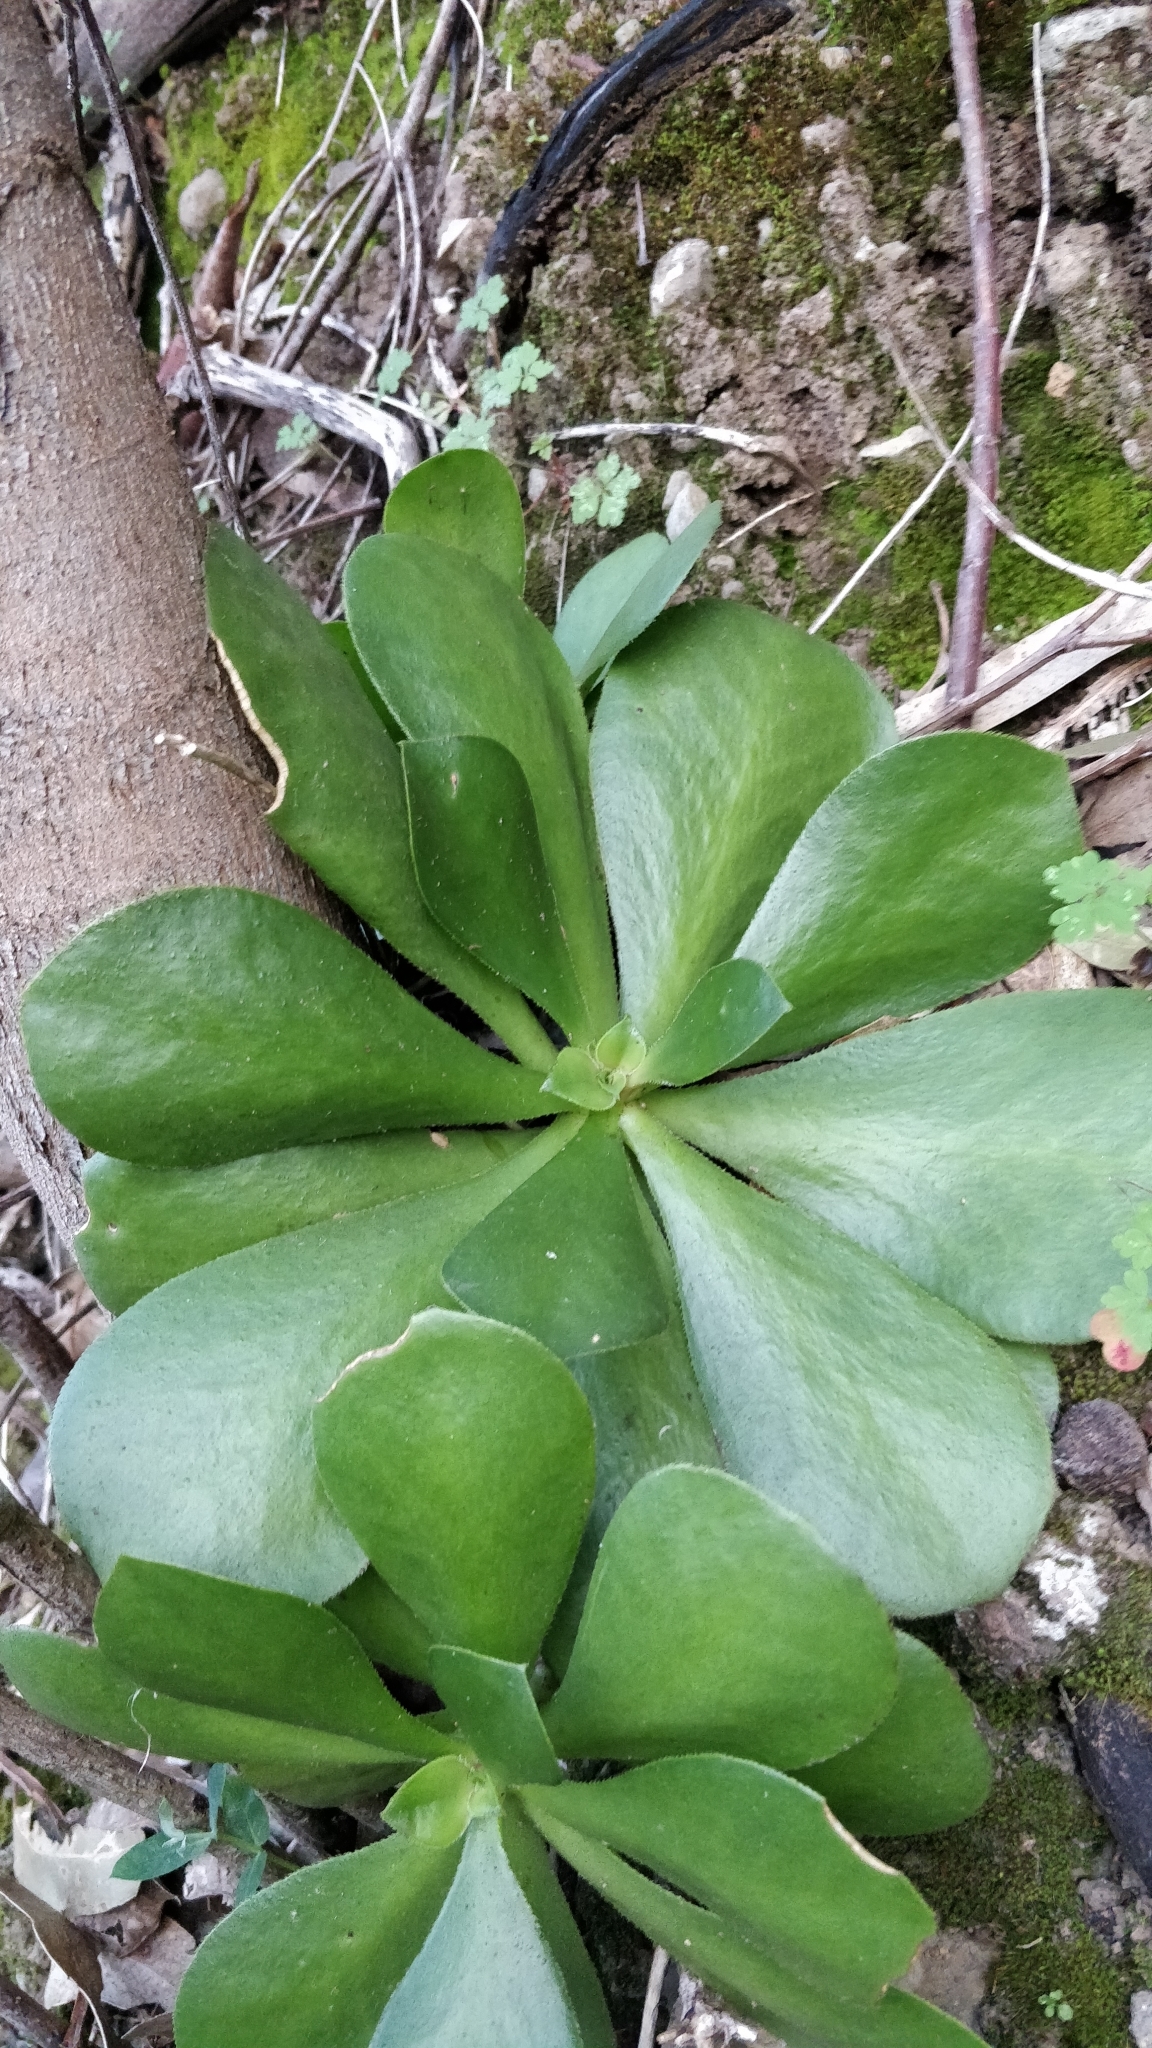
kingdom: Plantae
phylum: Tracheophyta
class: Magnoliopsida
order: Saxifragales
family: Crassulaceae
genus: Aeonium
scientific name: Aeonium glutinosum
